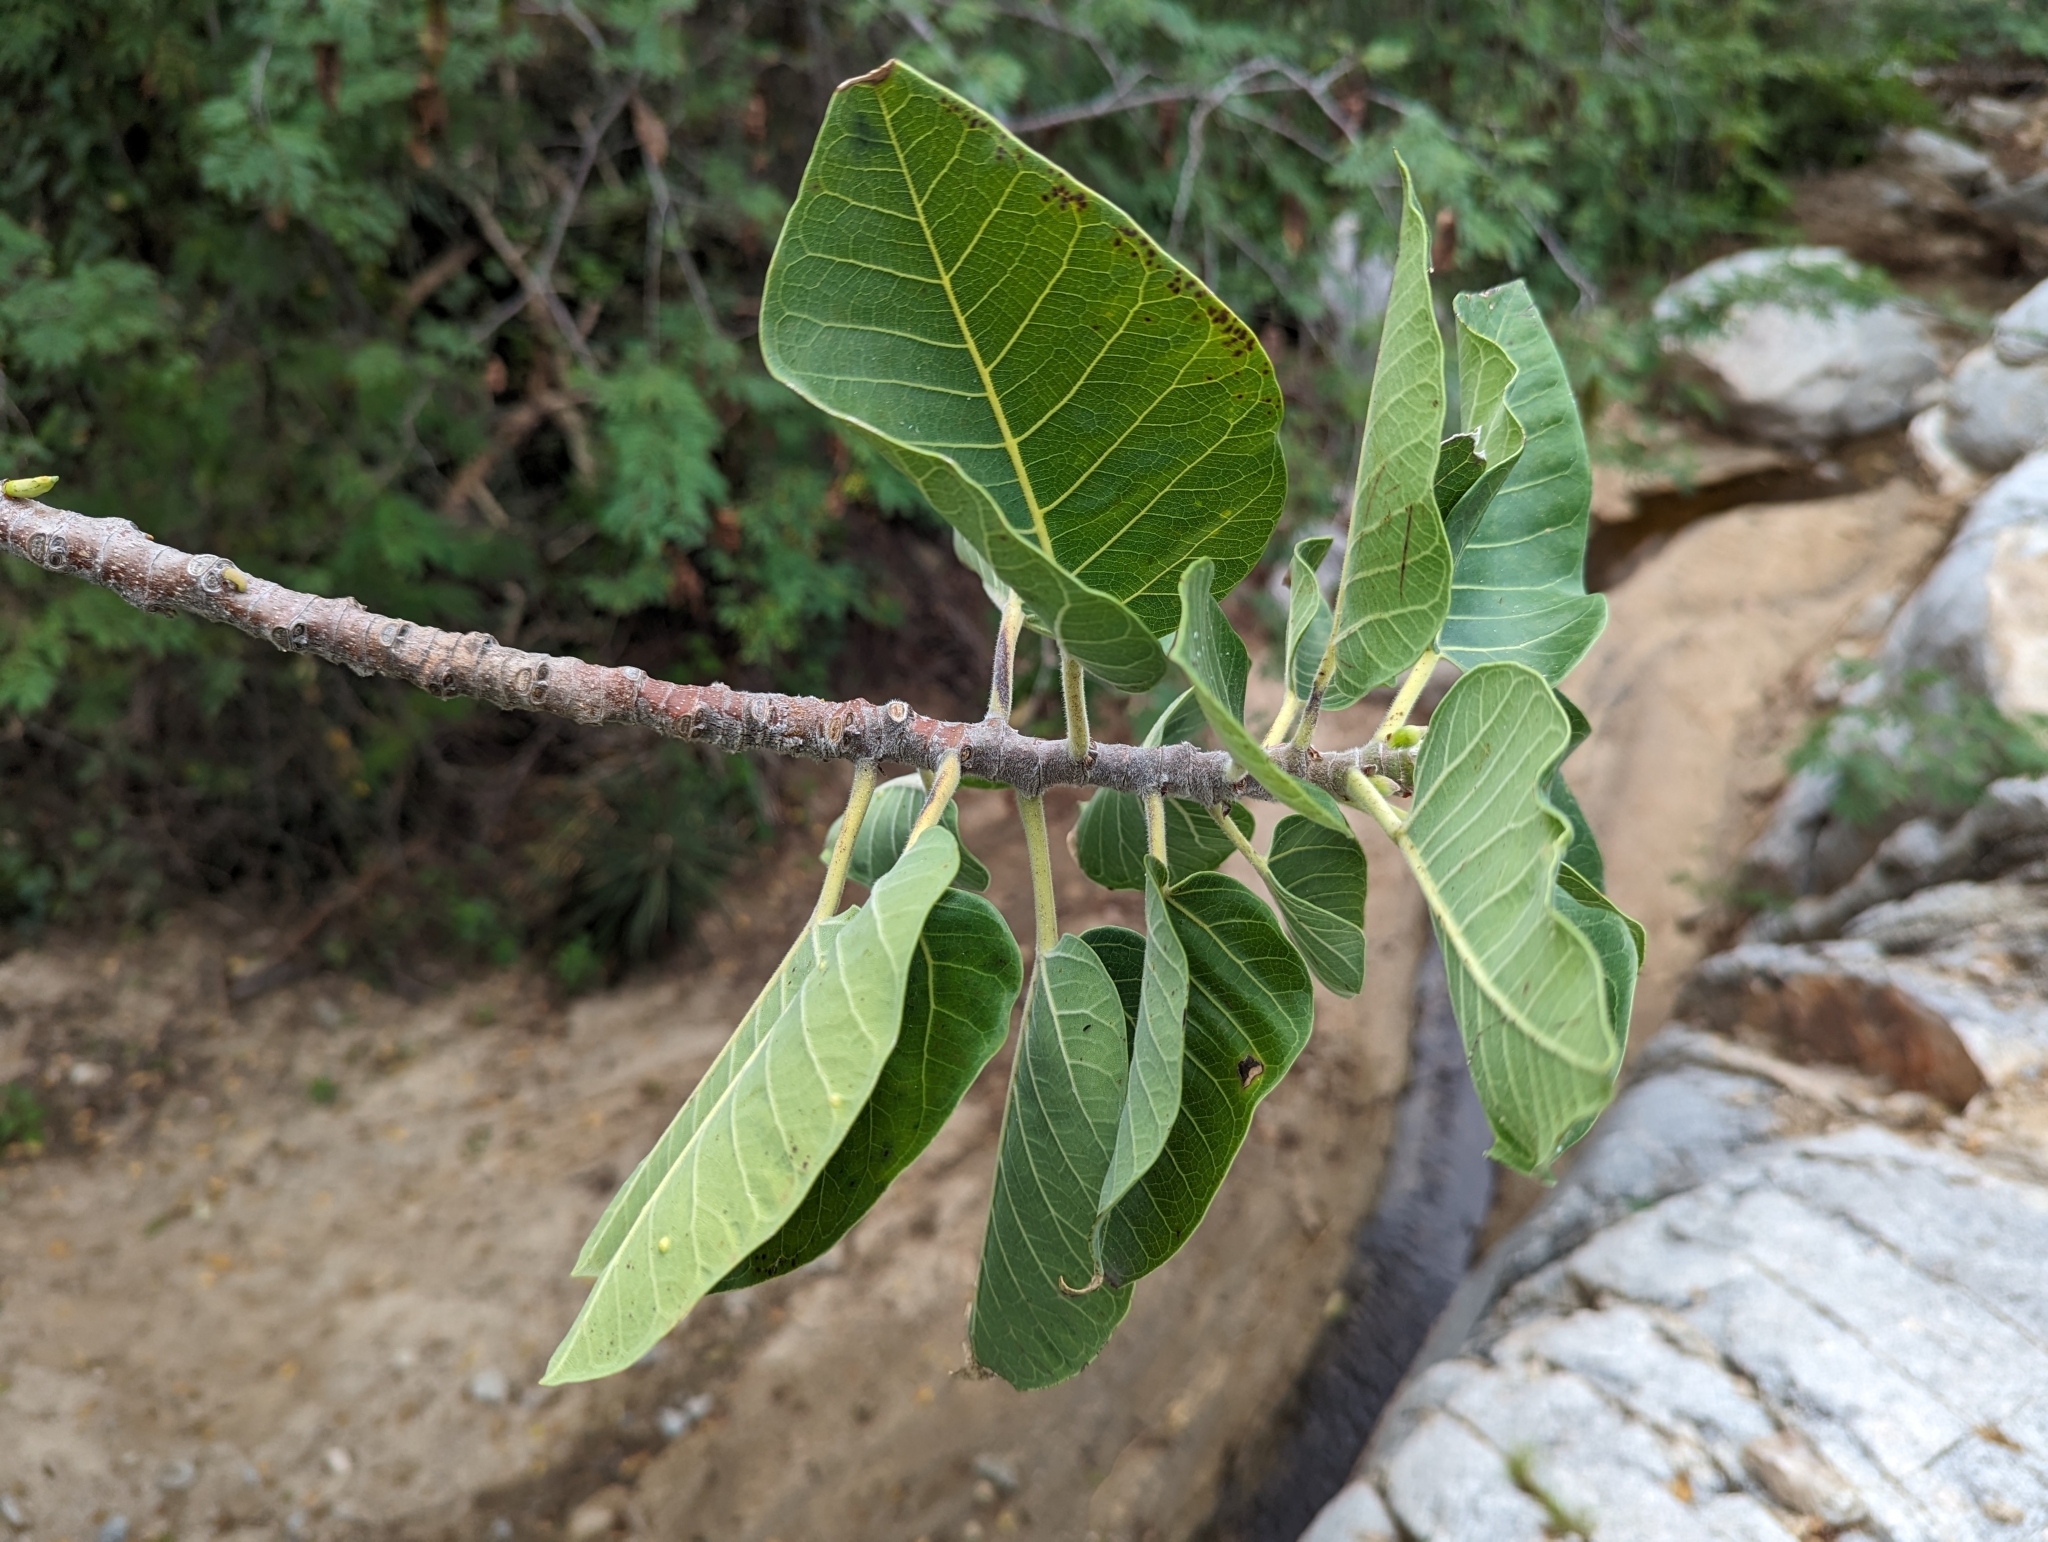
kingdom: Plantae
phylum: Tracheophyta
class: Magnoliopsida
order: Rosales
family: Moraceae
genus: Ficus
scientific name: Ficus petiolaris
